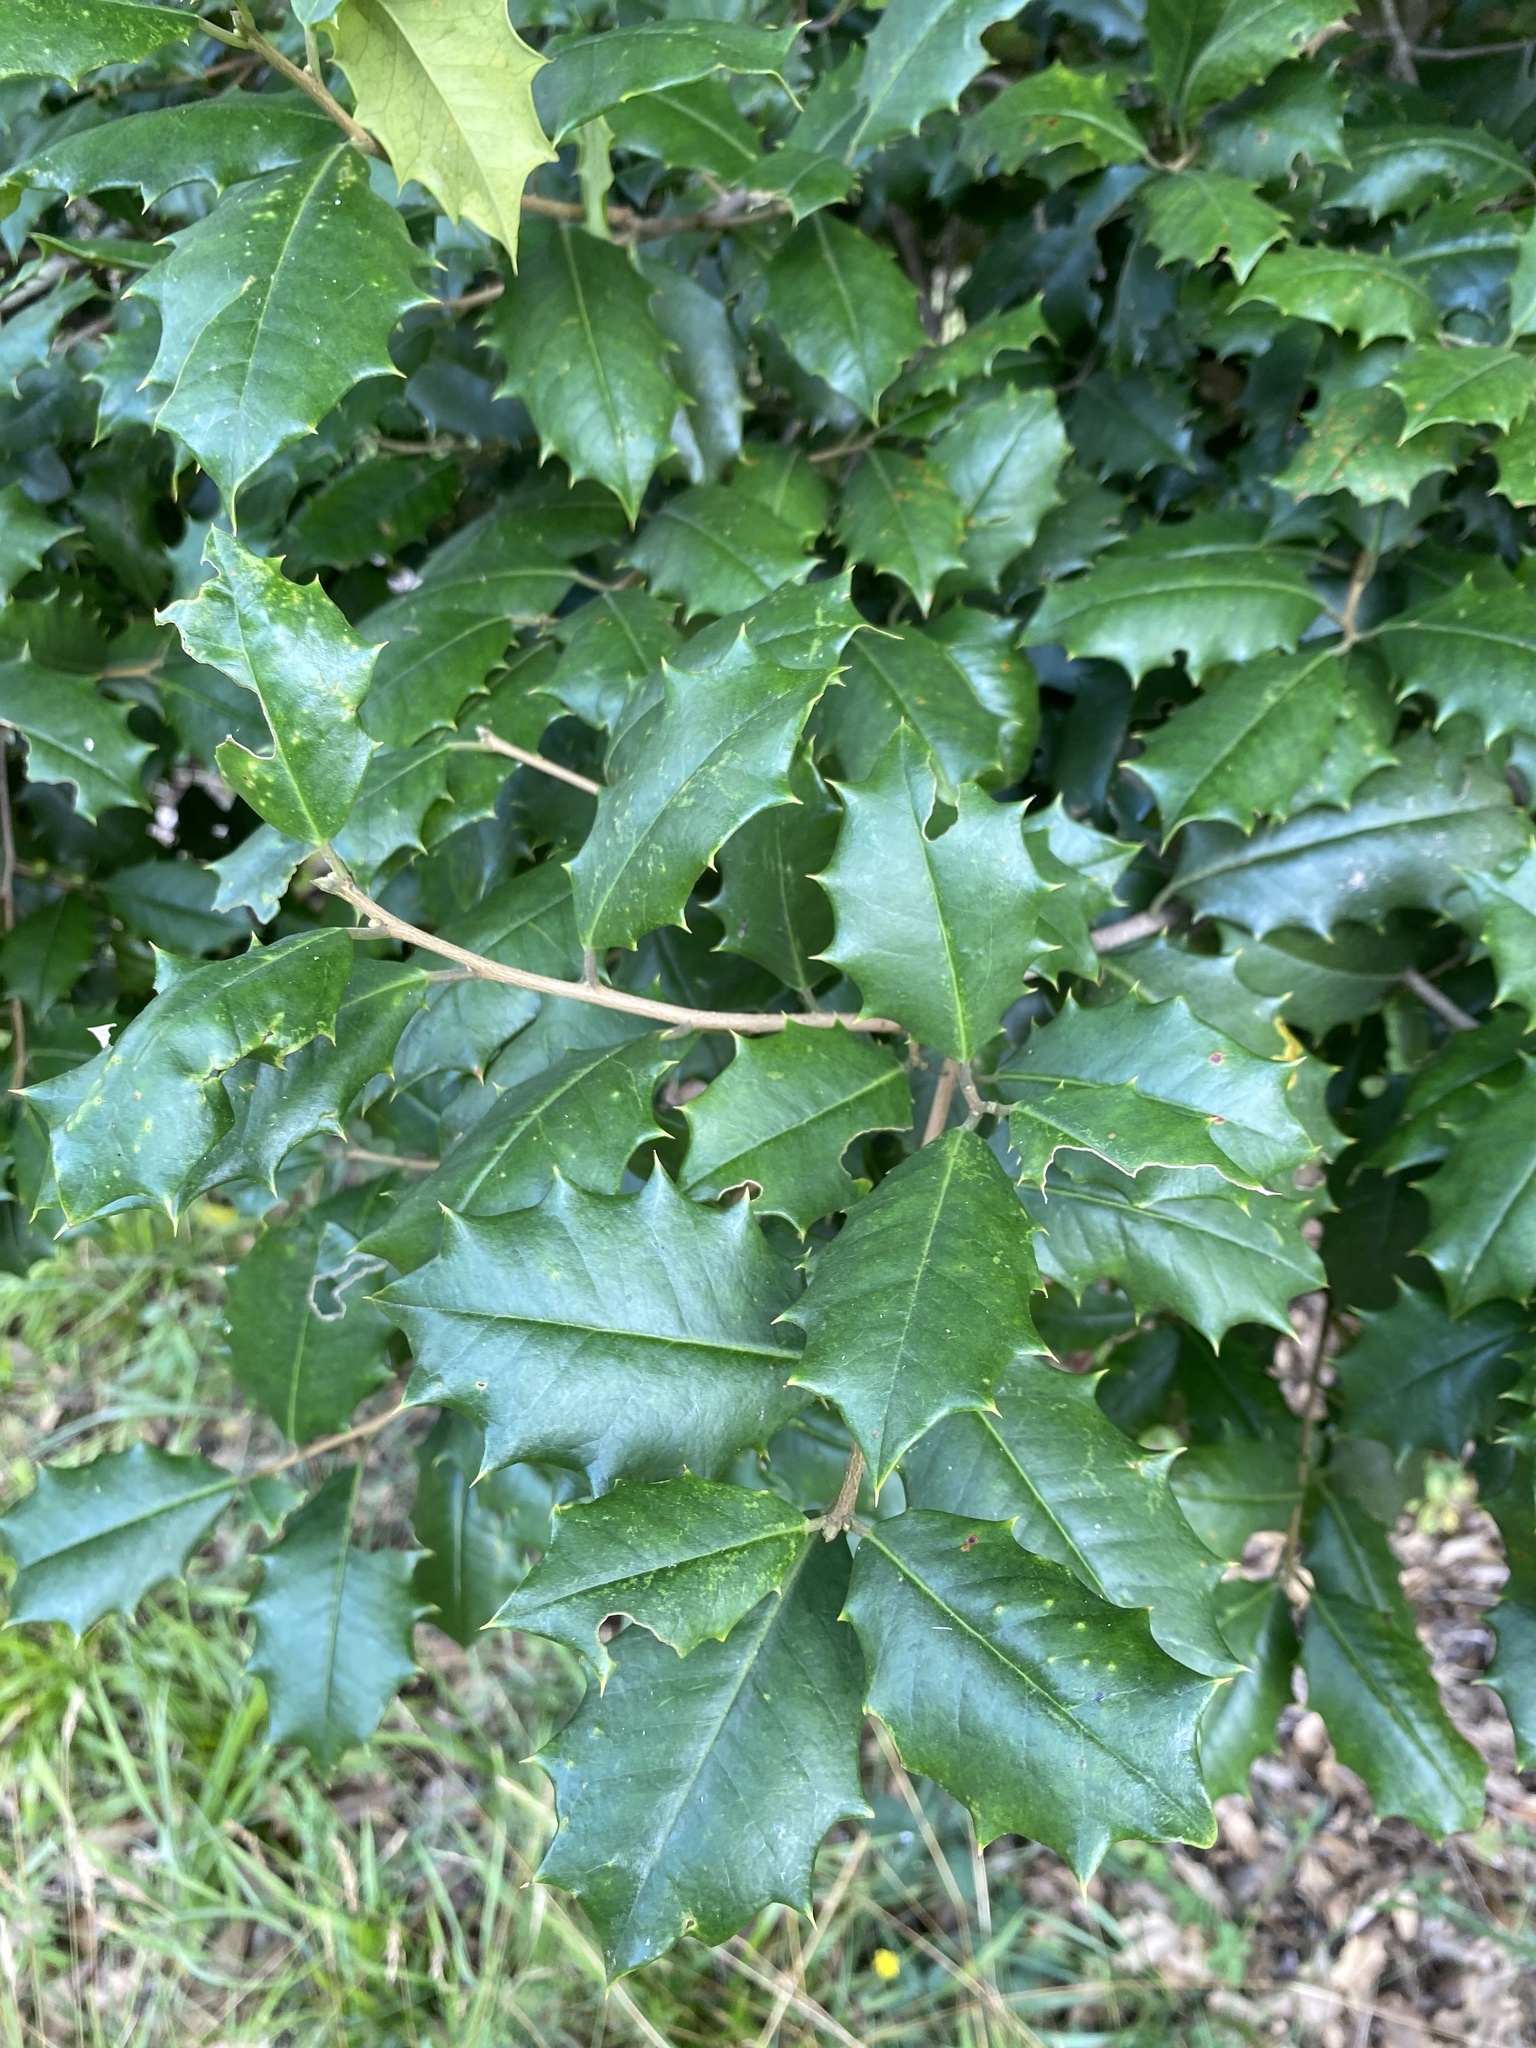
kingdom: Plantae
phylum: Tracheophyta
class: Magnoliopsida
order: Aquifoliales
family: Aquifoliaceae
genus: Ilex
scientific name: Ilex opaca
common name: American holly
